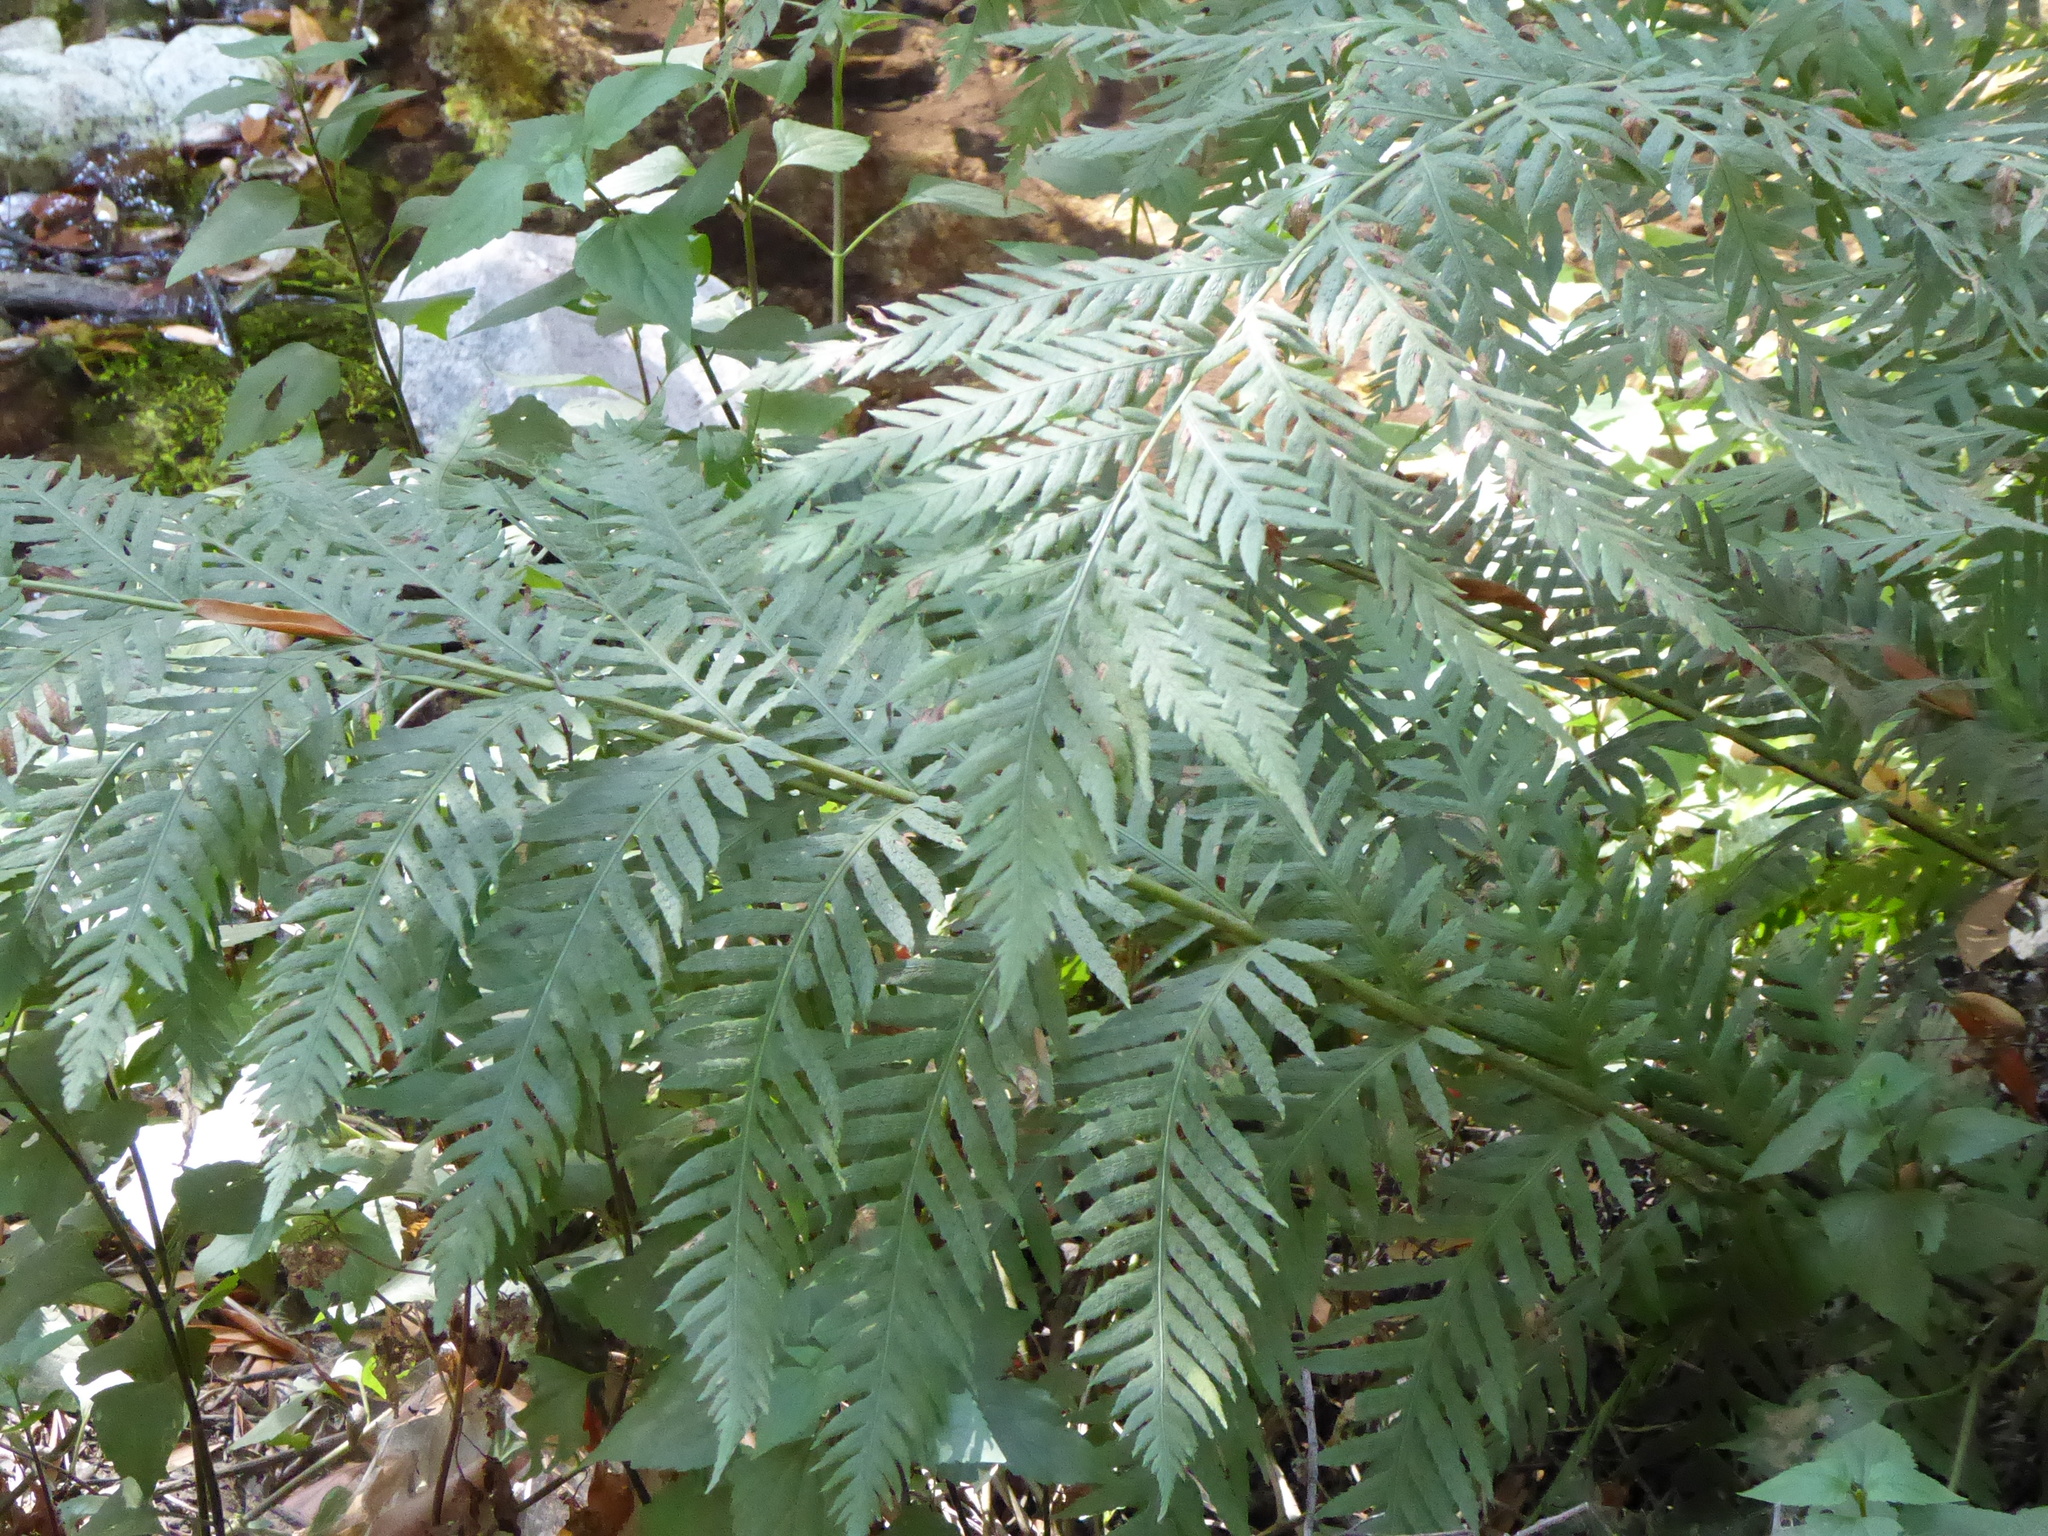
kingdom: Plantae
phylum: Tracheophyta
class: Polypodiopsida
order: Polypodiales
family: Blechnaceae
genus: Woodwardia
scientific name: Woodwardia fimbriata
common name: Giant chain fern
